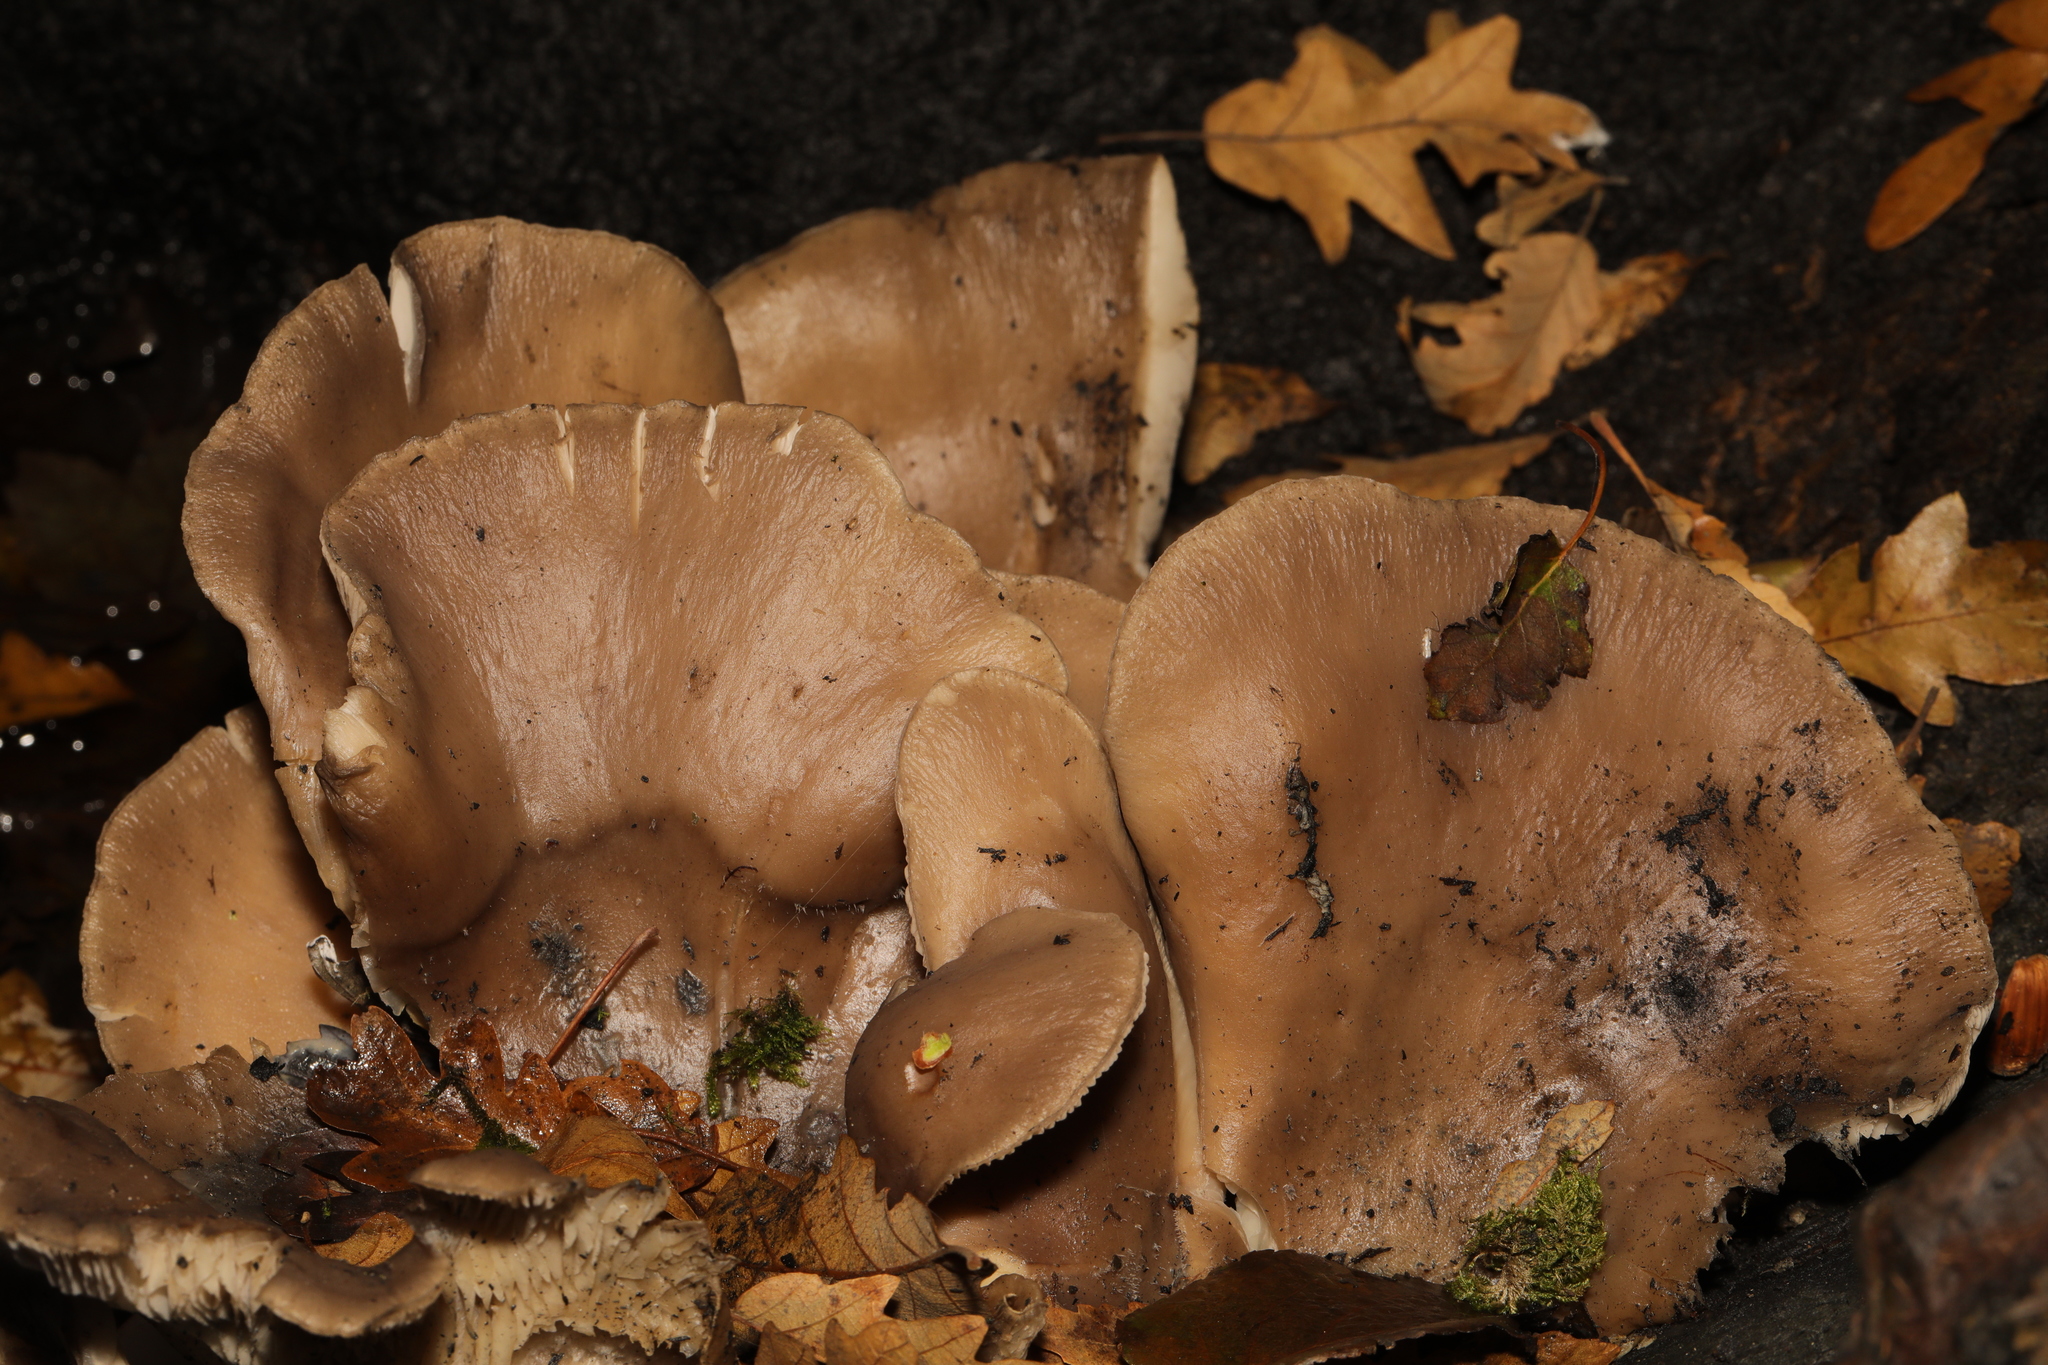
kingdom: Fungi
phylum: Basidiomycota
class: Agaricomycetes
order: Agaricales
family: Pleurotaceae
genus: Pleurotus
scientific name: Pleurotus ostreatus
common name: Oyster mushroom
